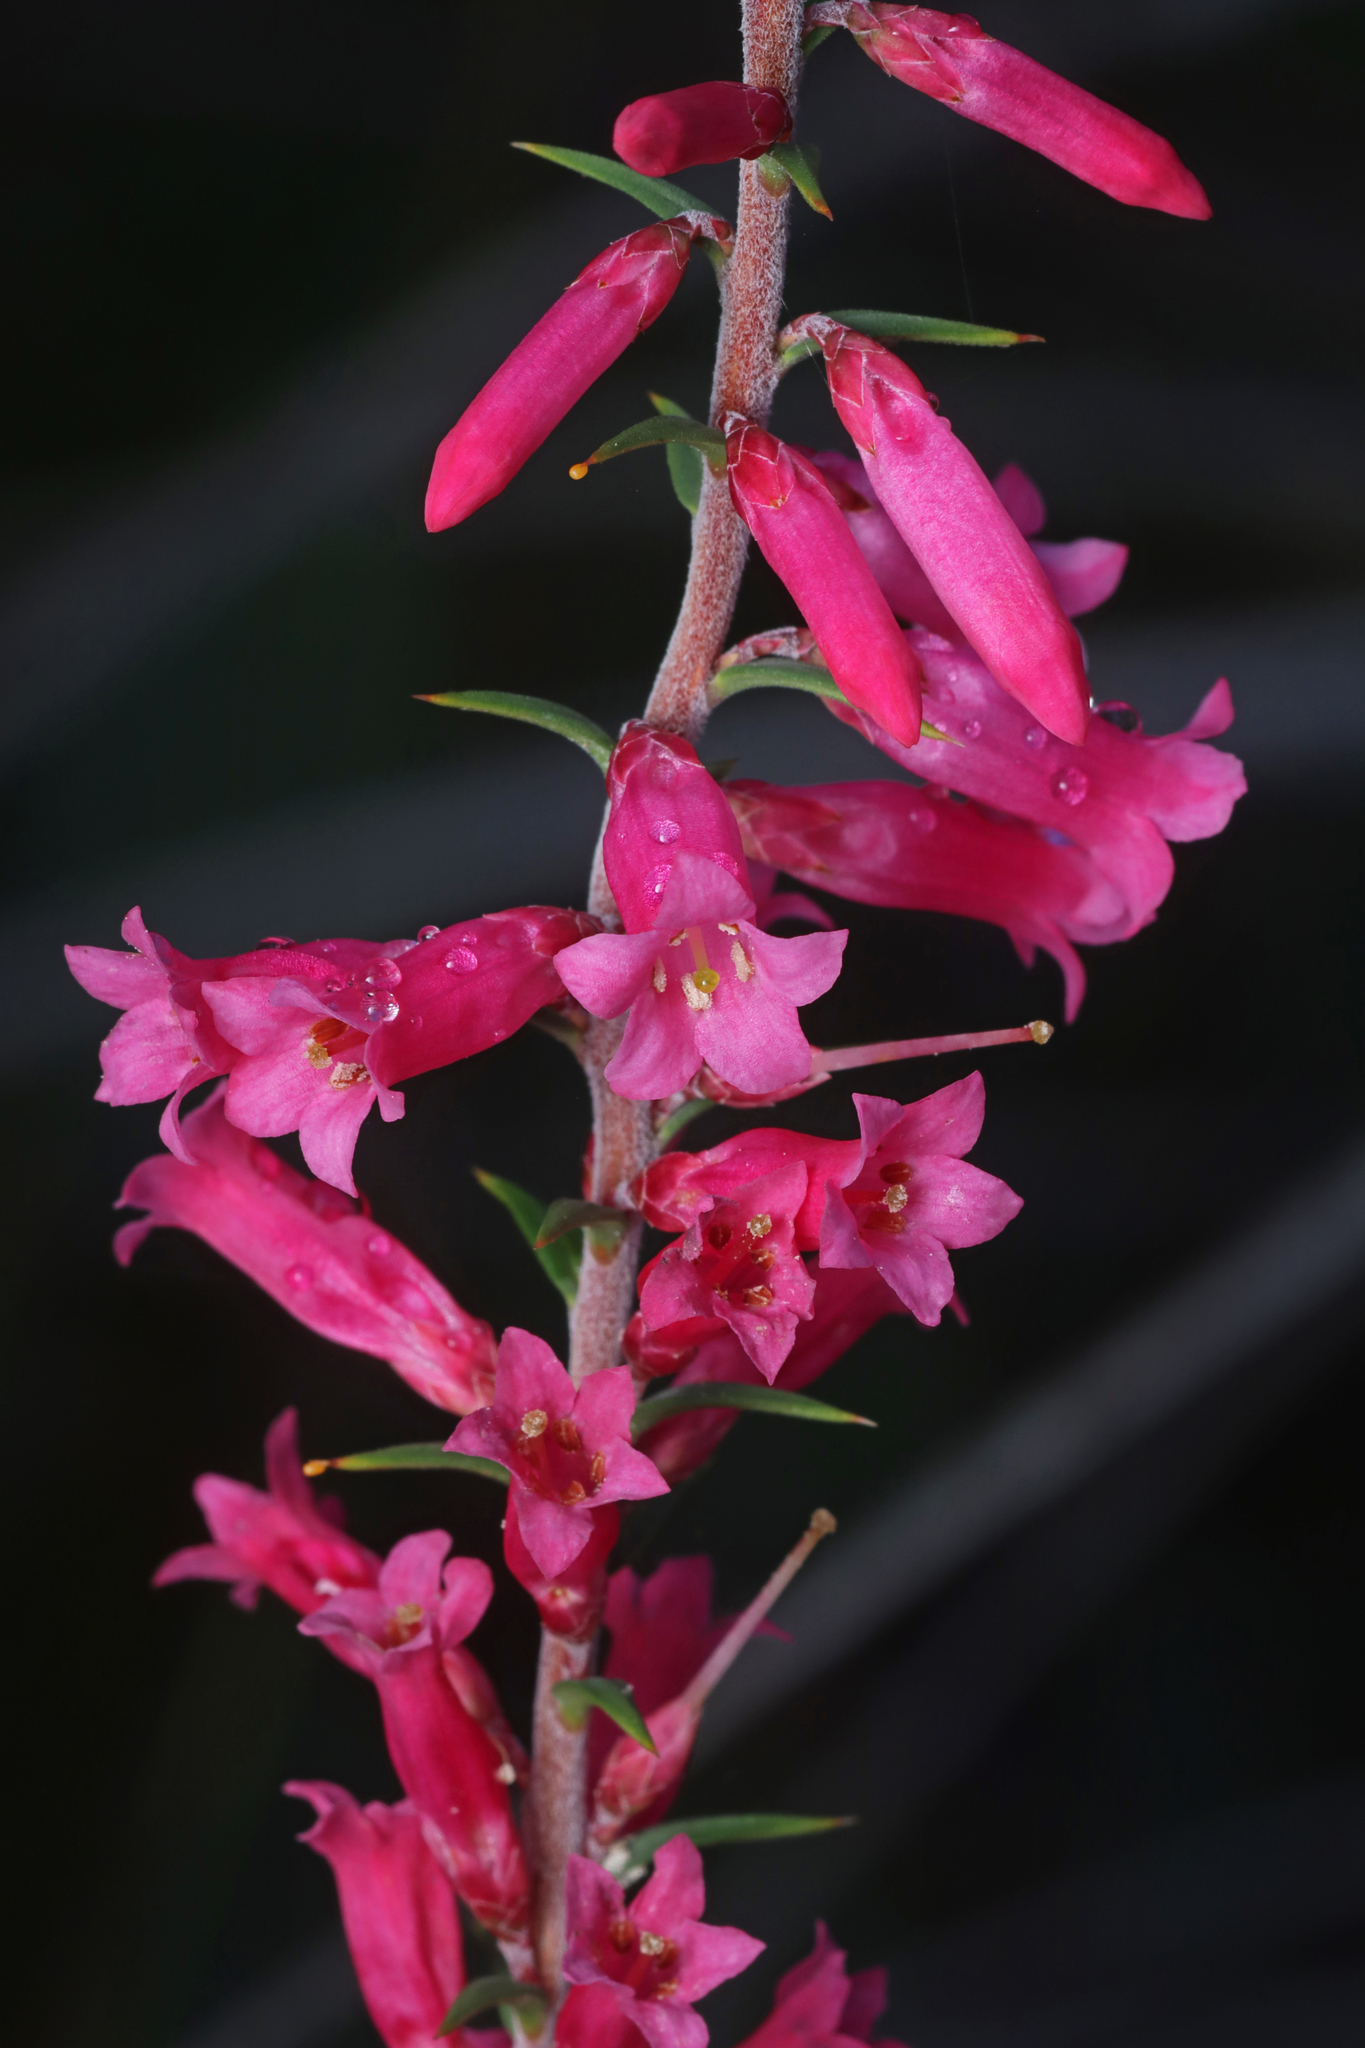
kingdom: Plantae
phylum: Tracheophyta
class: Magnoliopsida
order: Ericales
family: Ericaceae
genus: Epacris
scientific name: Epacris impressa
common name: Common-heath
